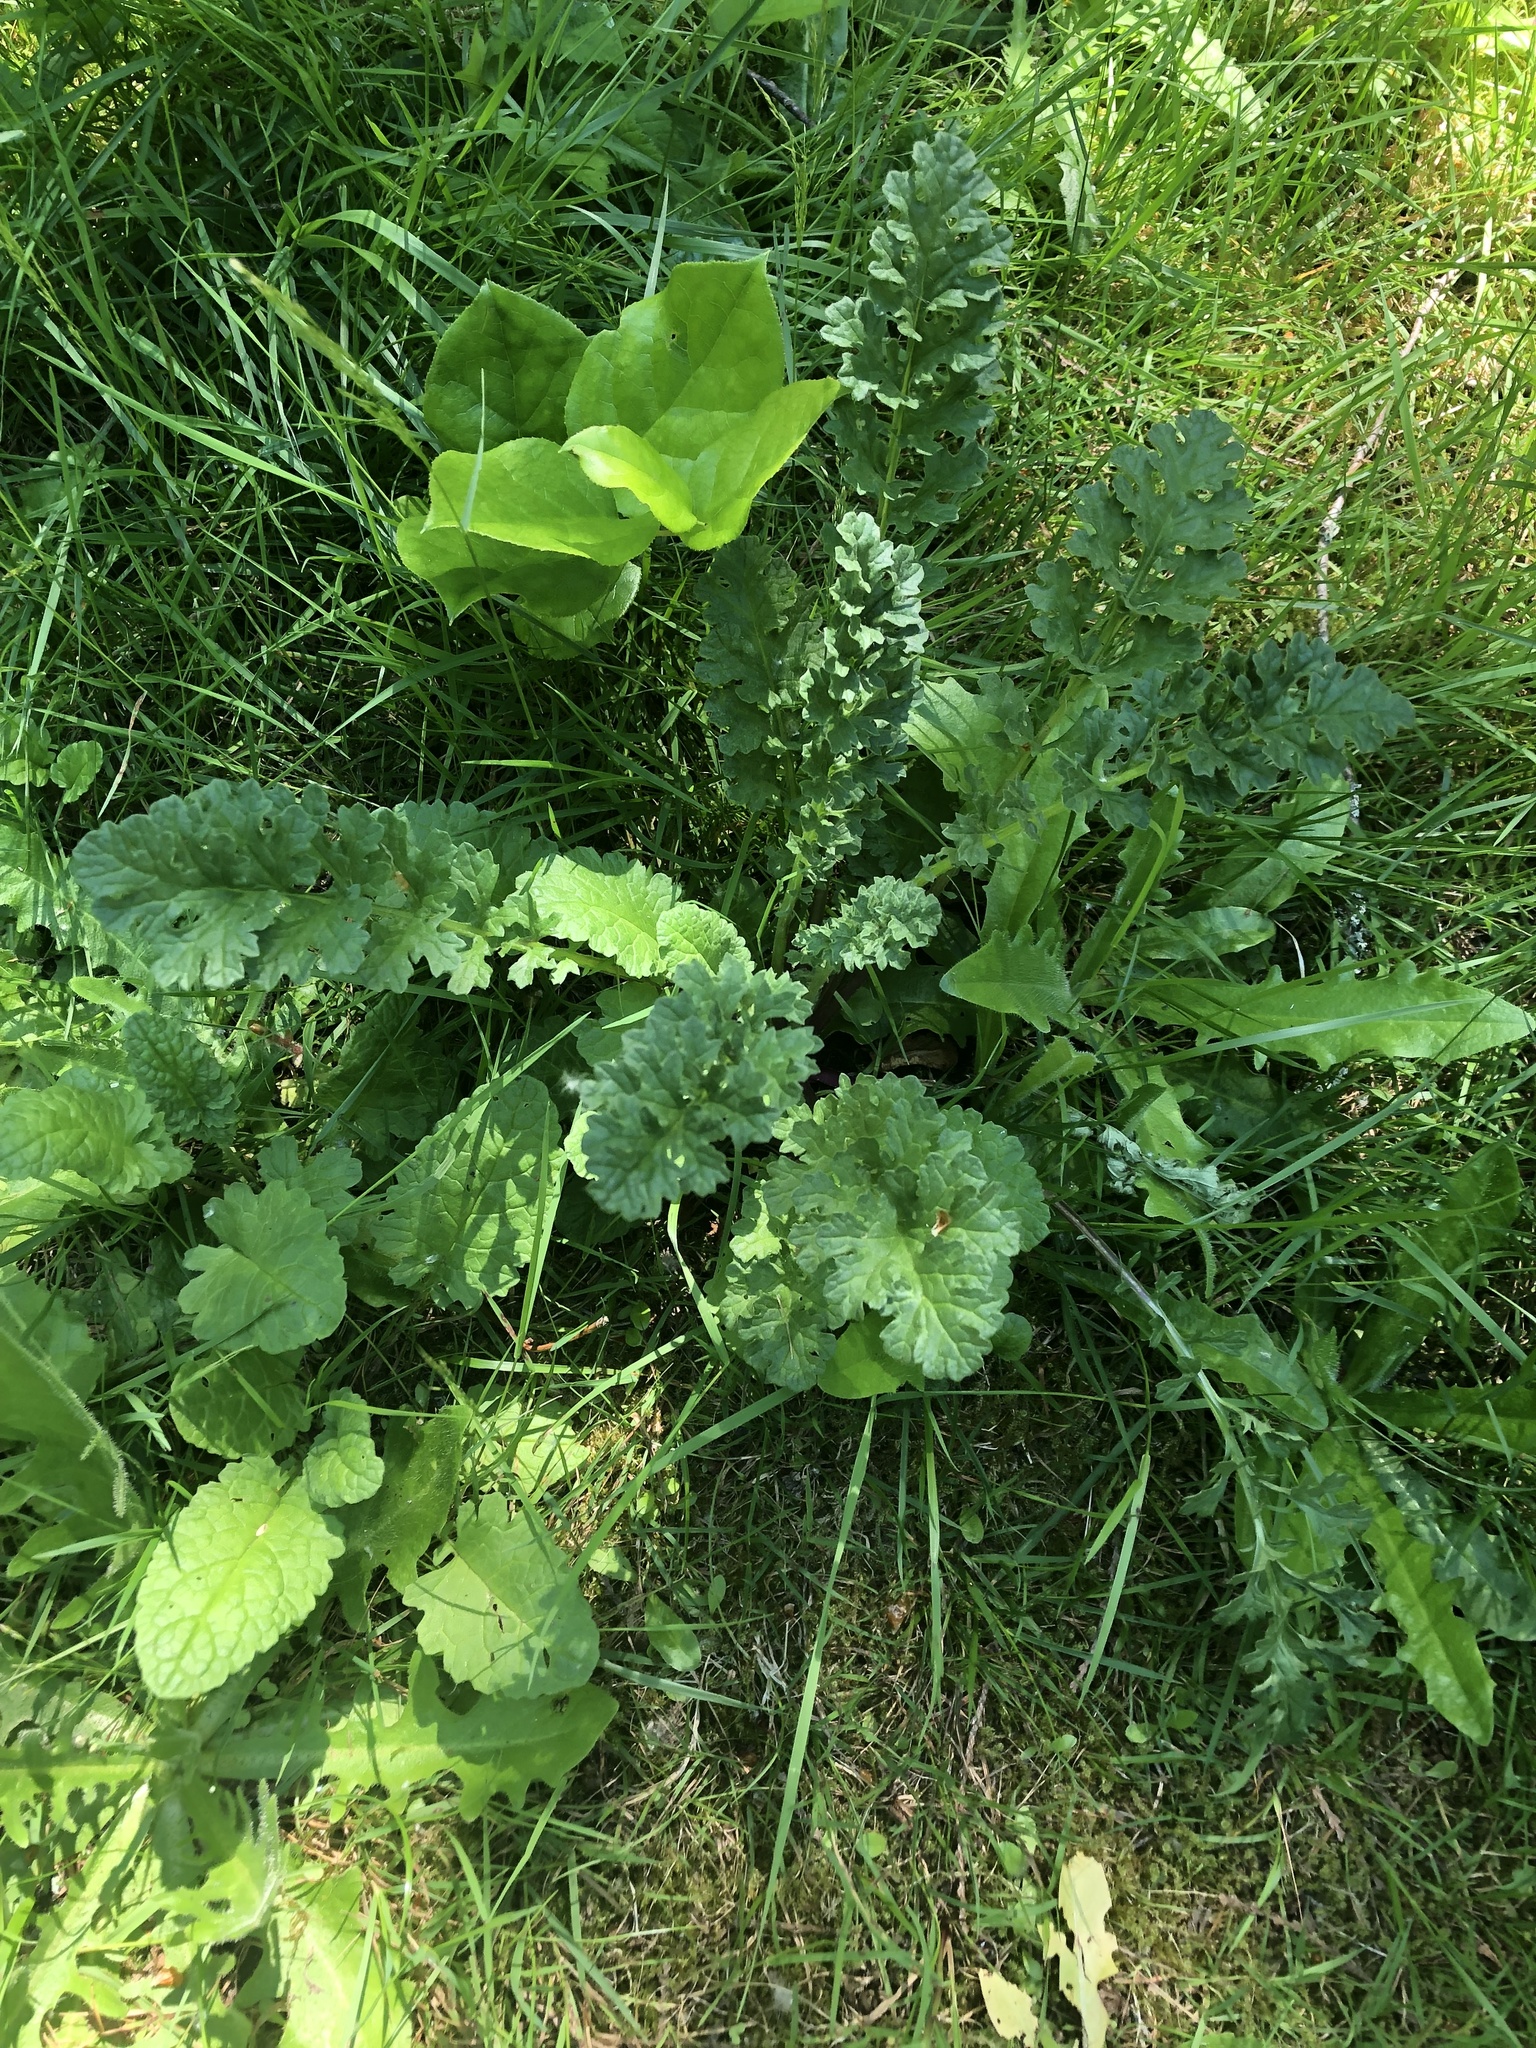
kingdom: Plantae
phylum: Tracheophyta
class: Magnoliopsida
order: Asterales
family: Asteraceae
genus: Jacobaea
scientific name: Jacobaea vulgaris
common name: Stinking willie
